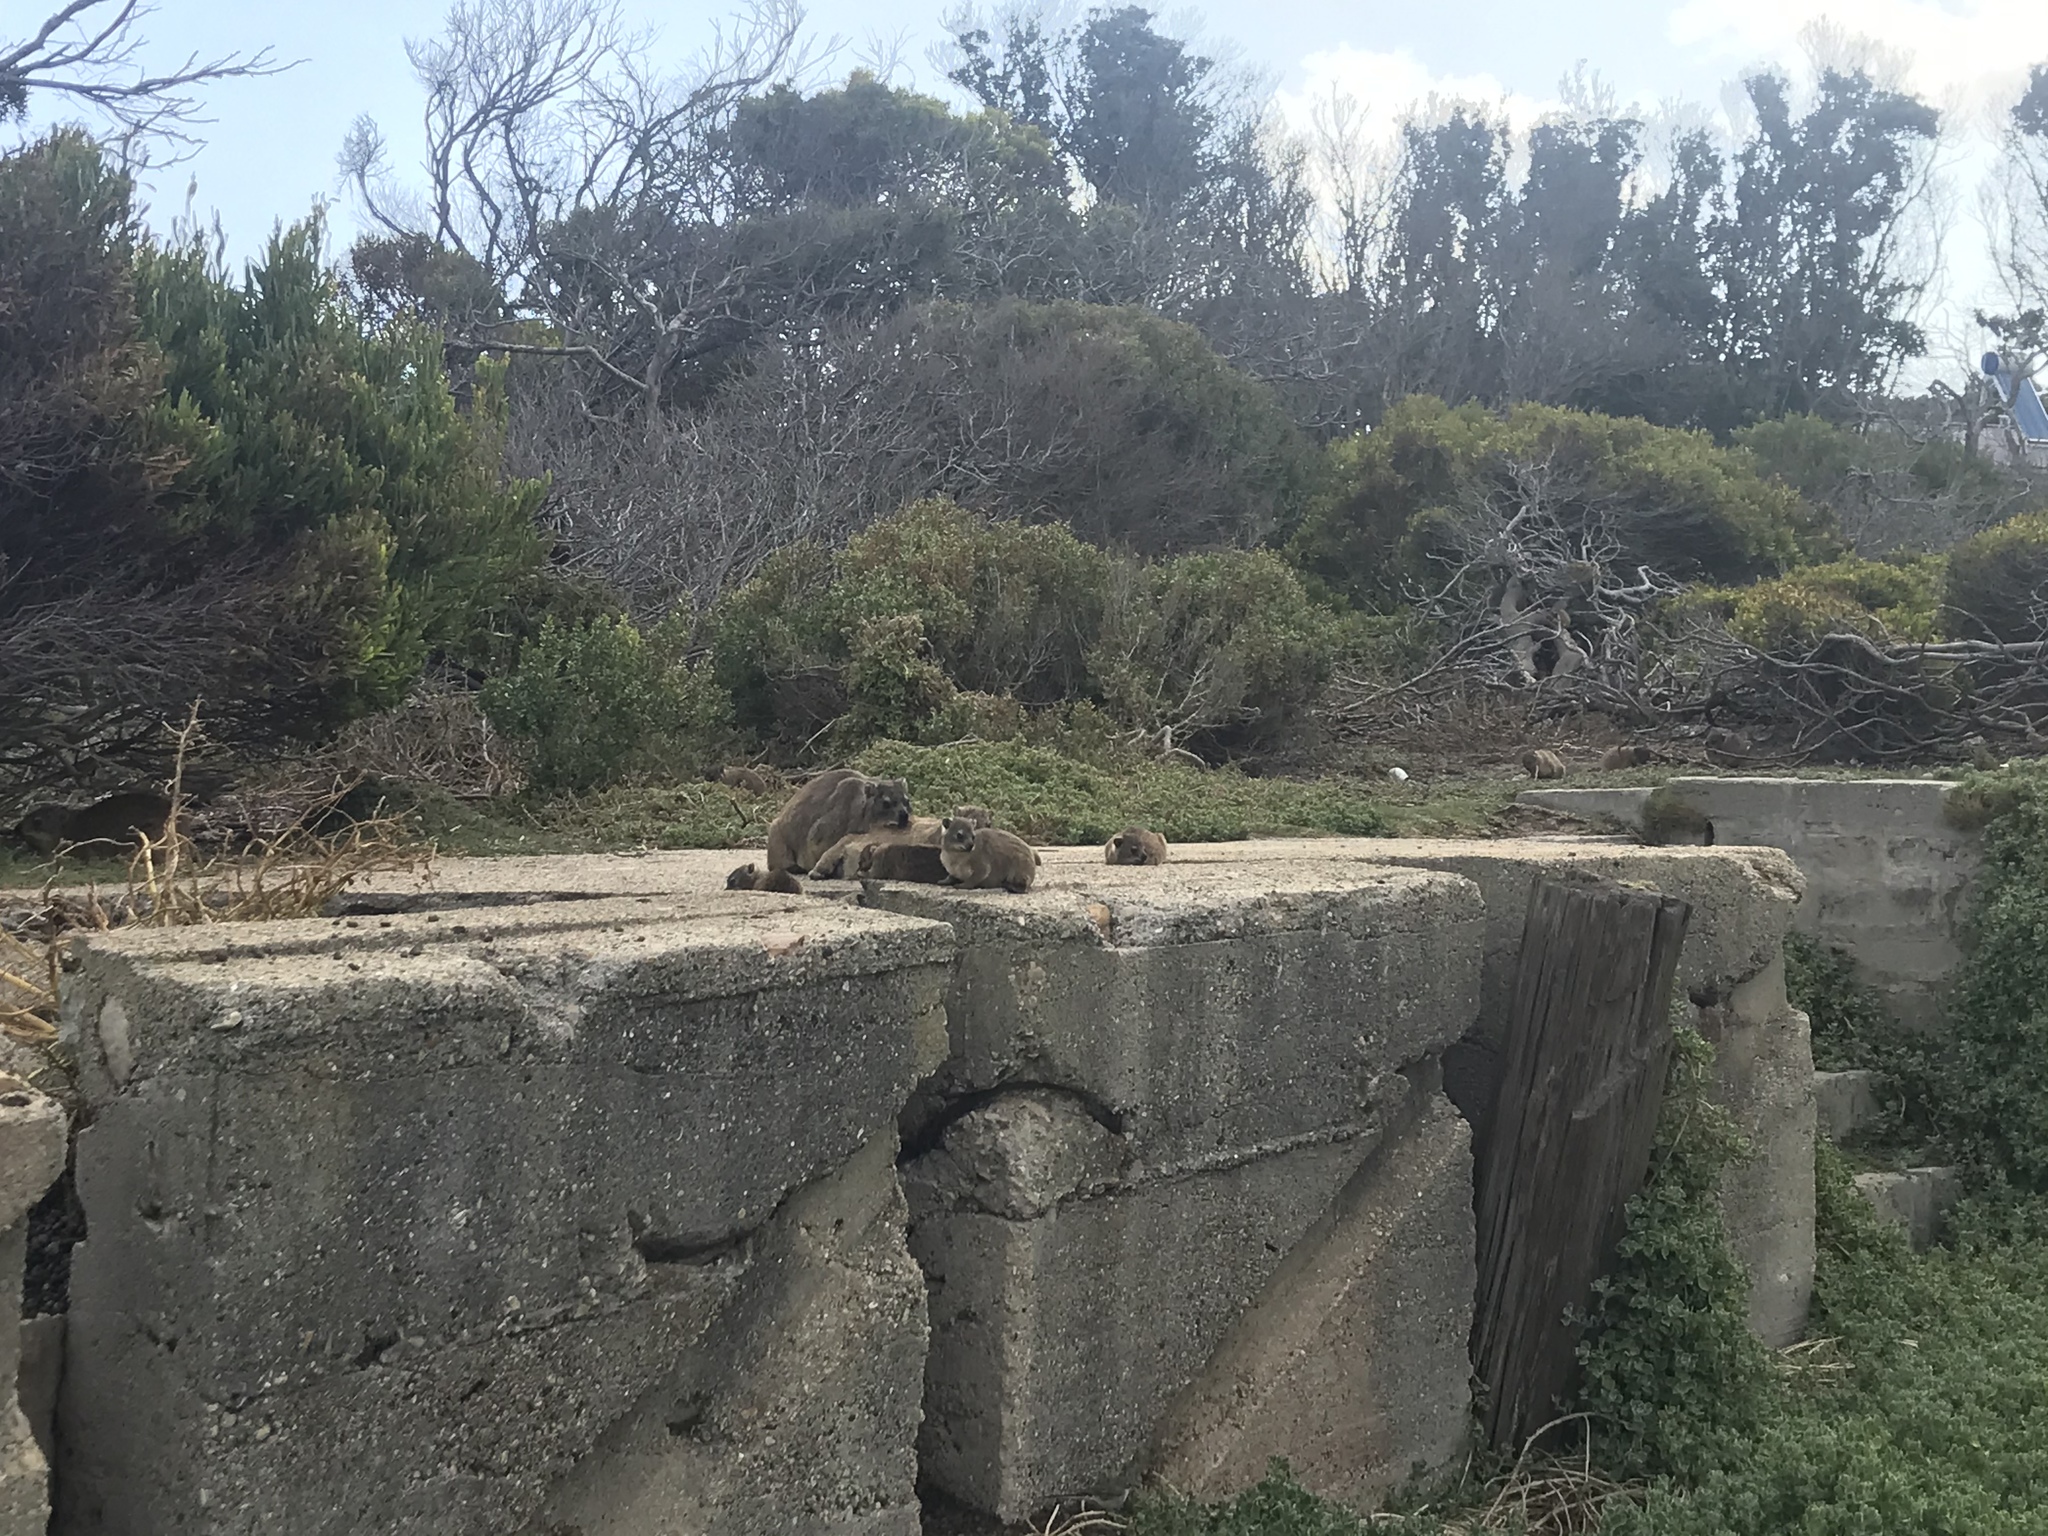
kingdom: Animalia
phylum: Chordata
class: Mammalia
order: Hyracoidea
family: Procaviidae
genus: Procavia
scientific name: Procavia capensis
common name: Rock hyrax
